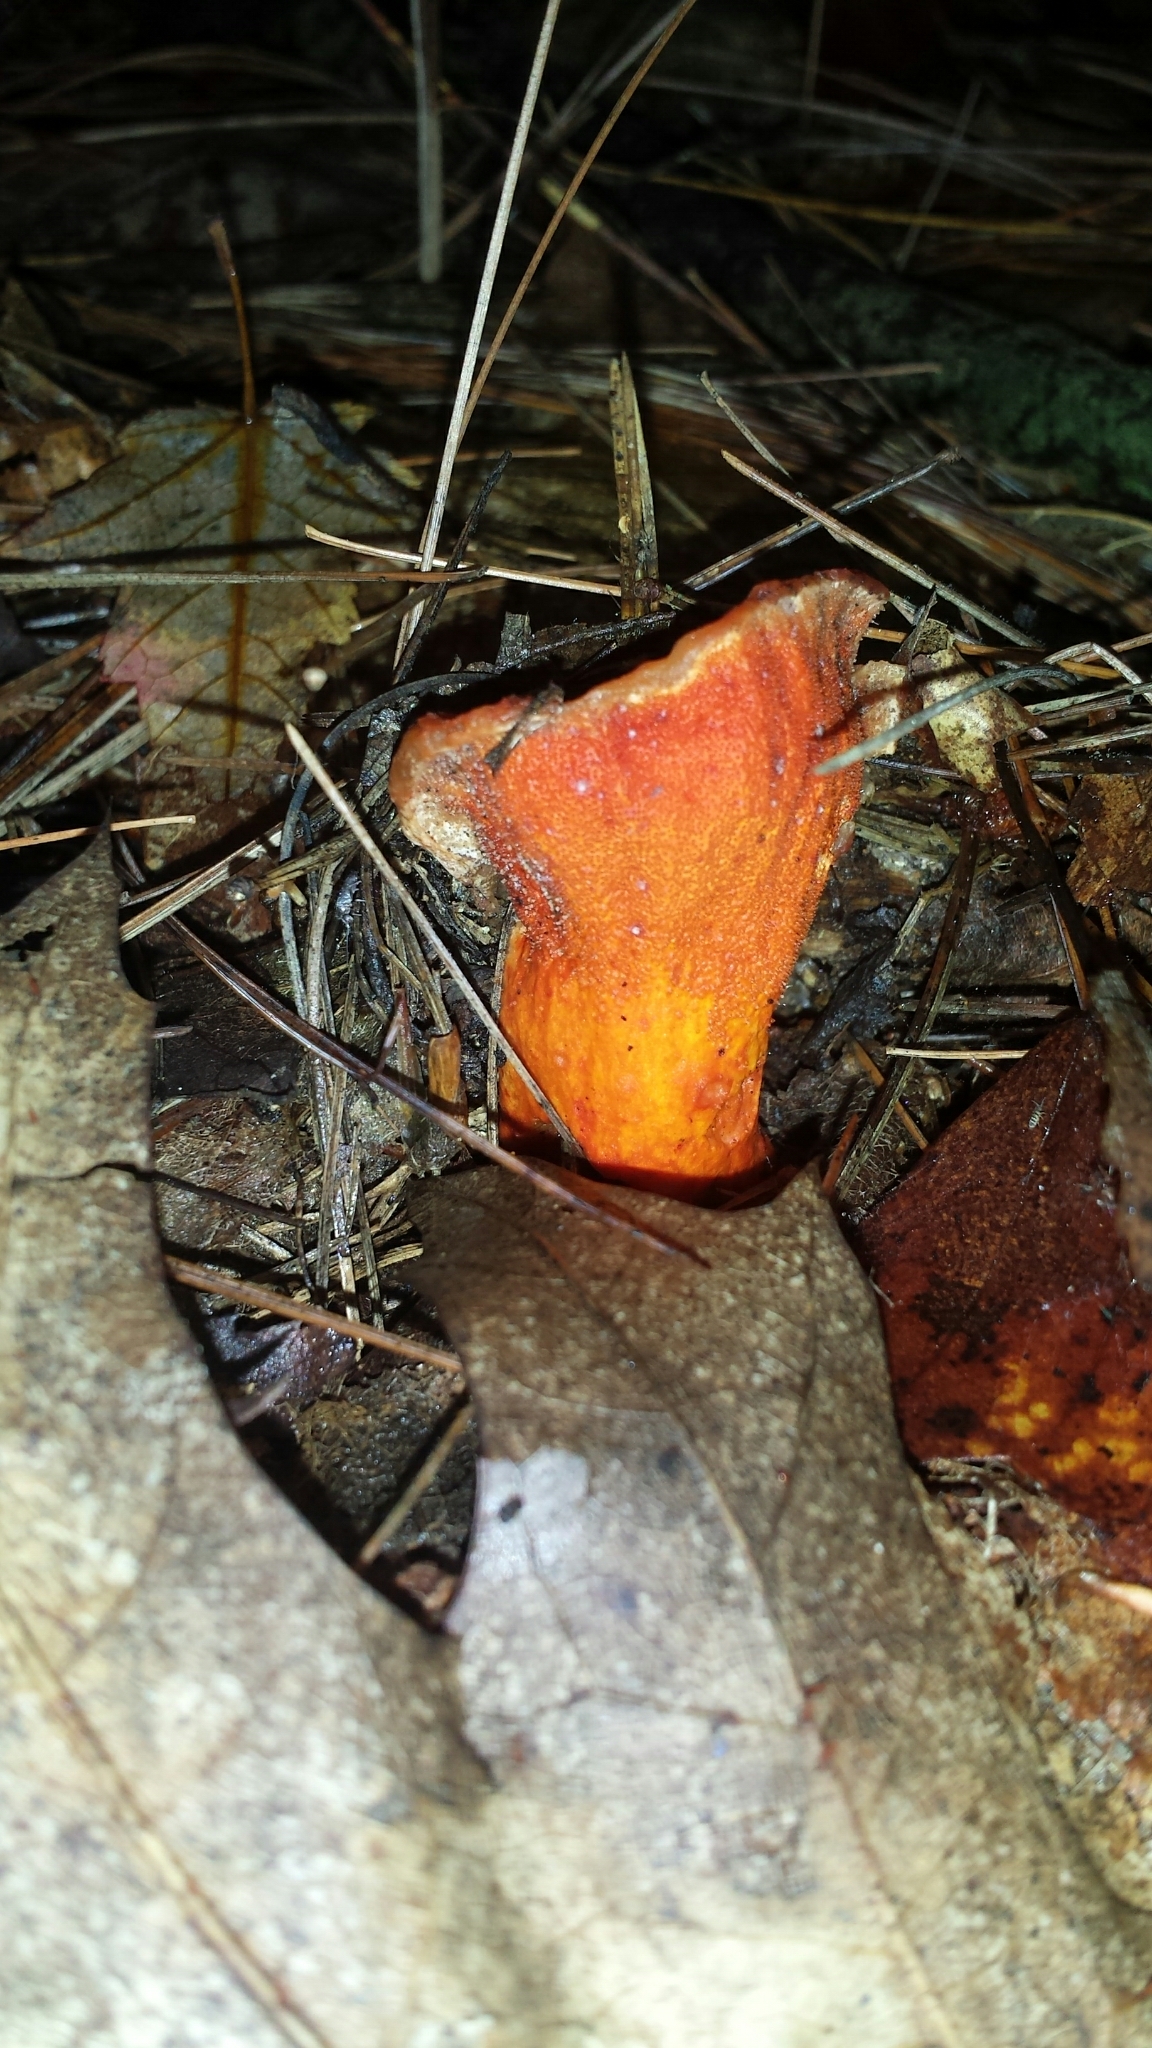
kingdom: Fungi
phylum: Ascomycota
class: Sordariomycetes
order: Hypocreales
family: Hypocreaceae
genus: Hypomyces
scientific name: Hypomyces lactifluorum
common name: Lobster mushroom
